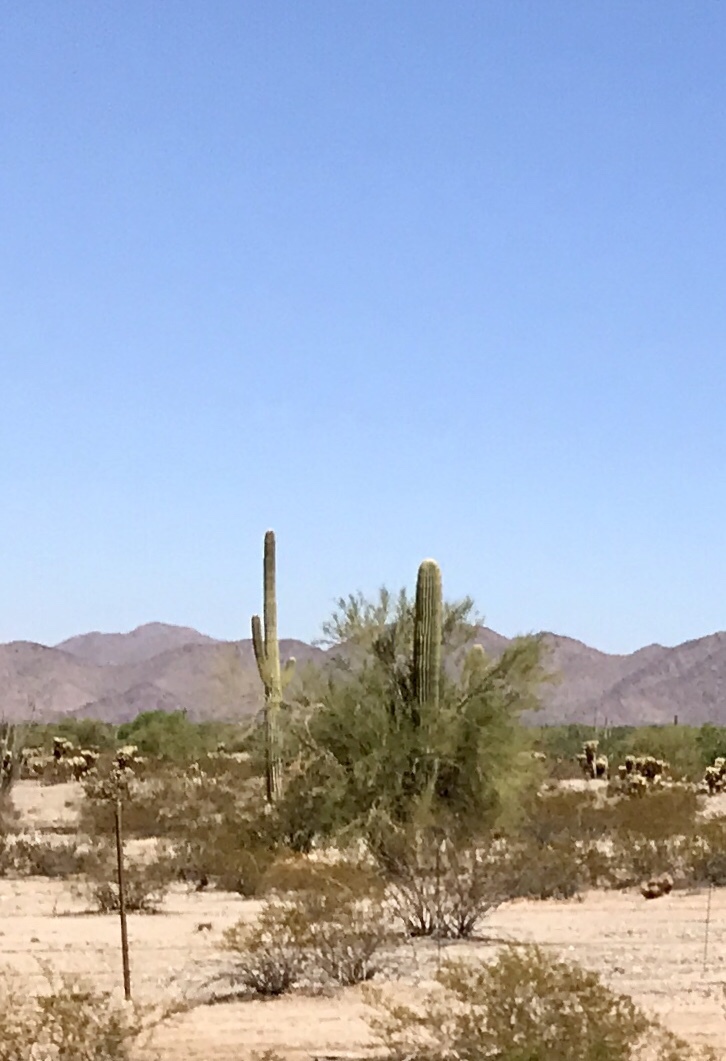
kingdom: Plantae
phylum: Tracheophyta
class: Magnoliopsida
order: Caryophyllales
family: Cactaceae
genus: Carnegiea
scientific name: Carnegiea gigantea
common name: Saguaro
